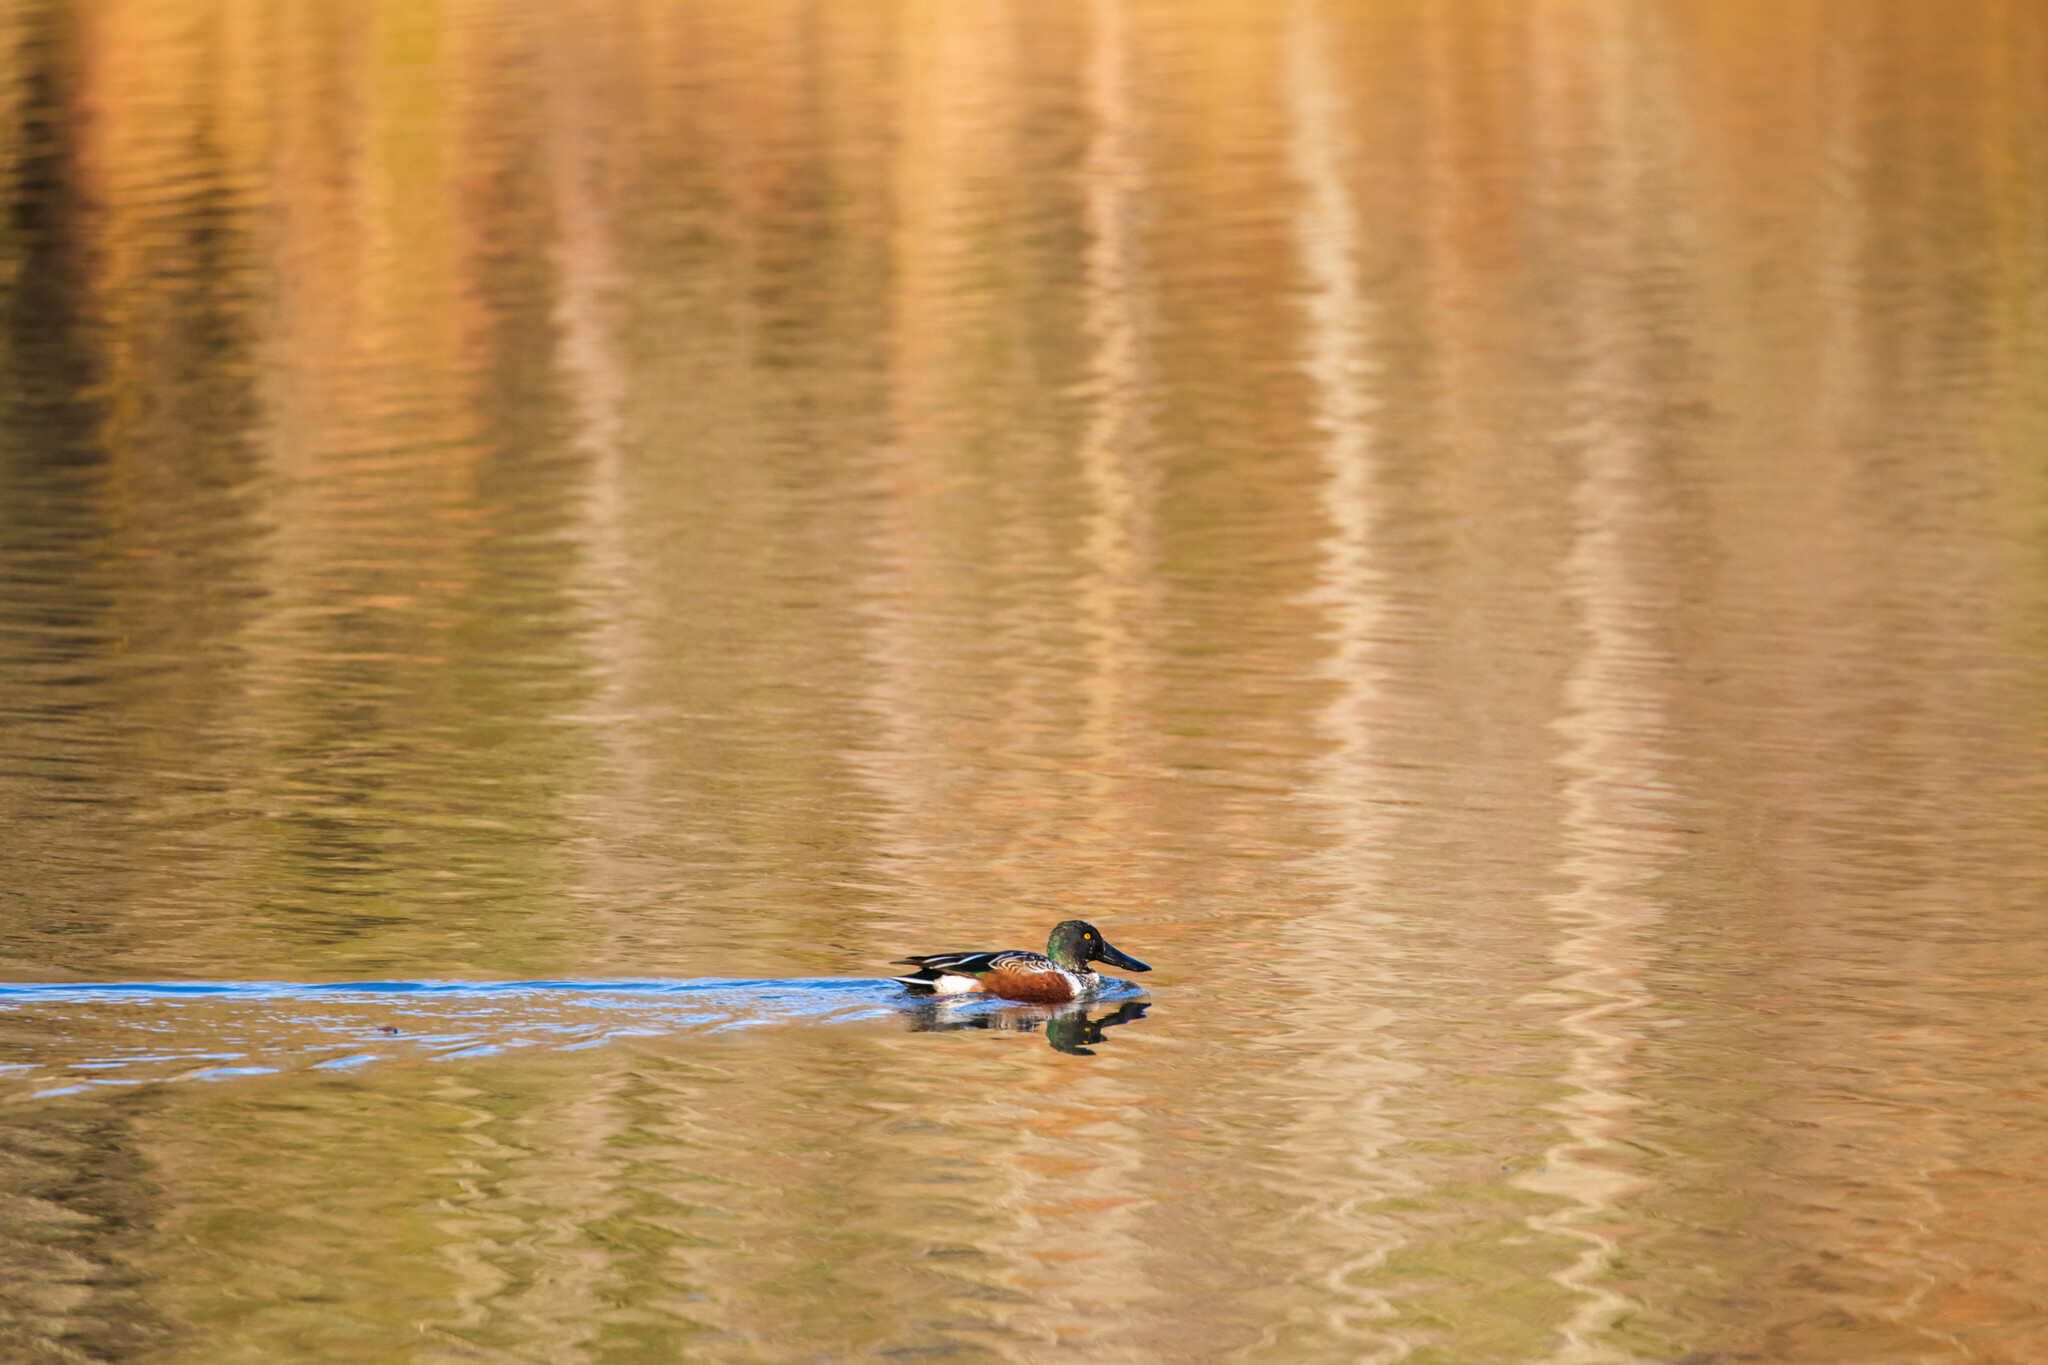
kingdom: Animalia
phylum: Chordata
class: Aves
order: Anseriformes
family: Anatidae
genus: Spatula
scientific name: Spatula clypeata
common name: Northern shoveler
